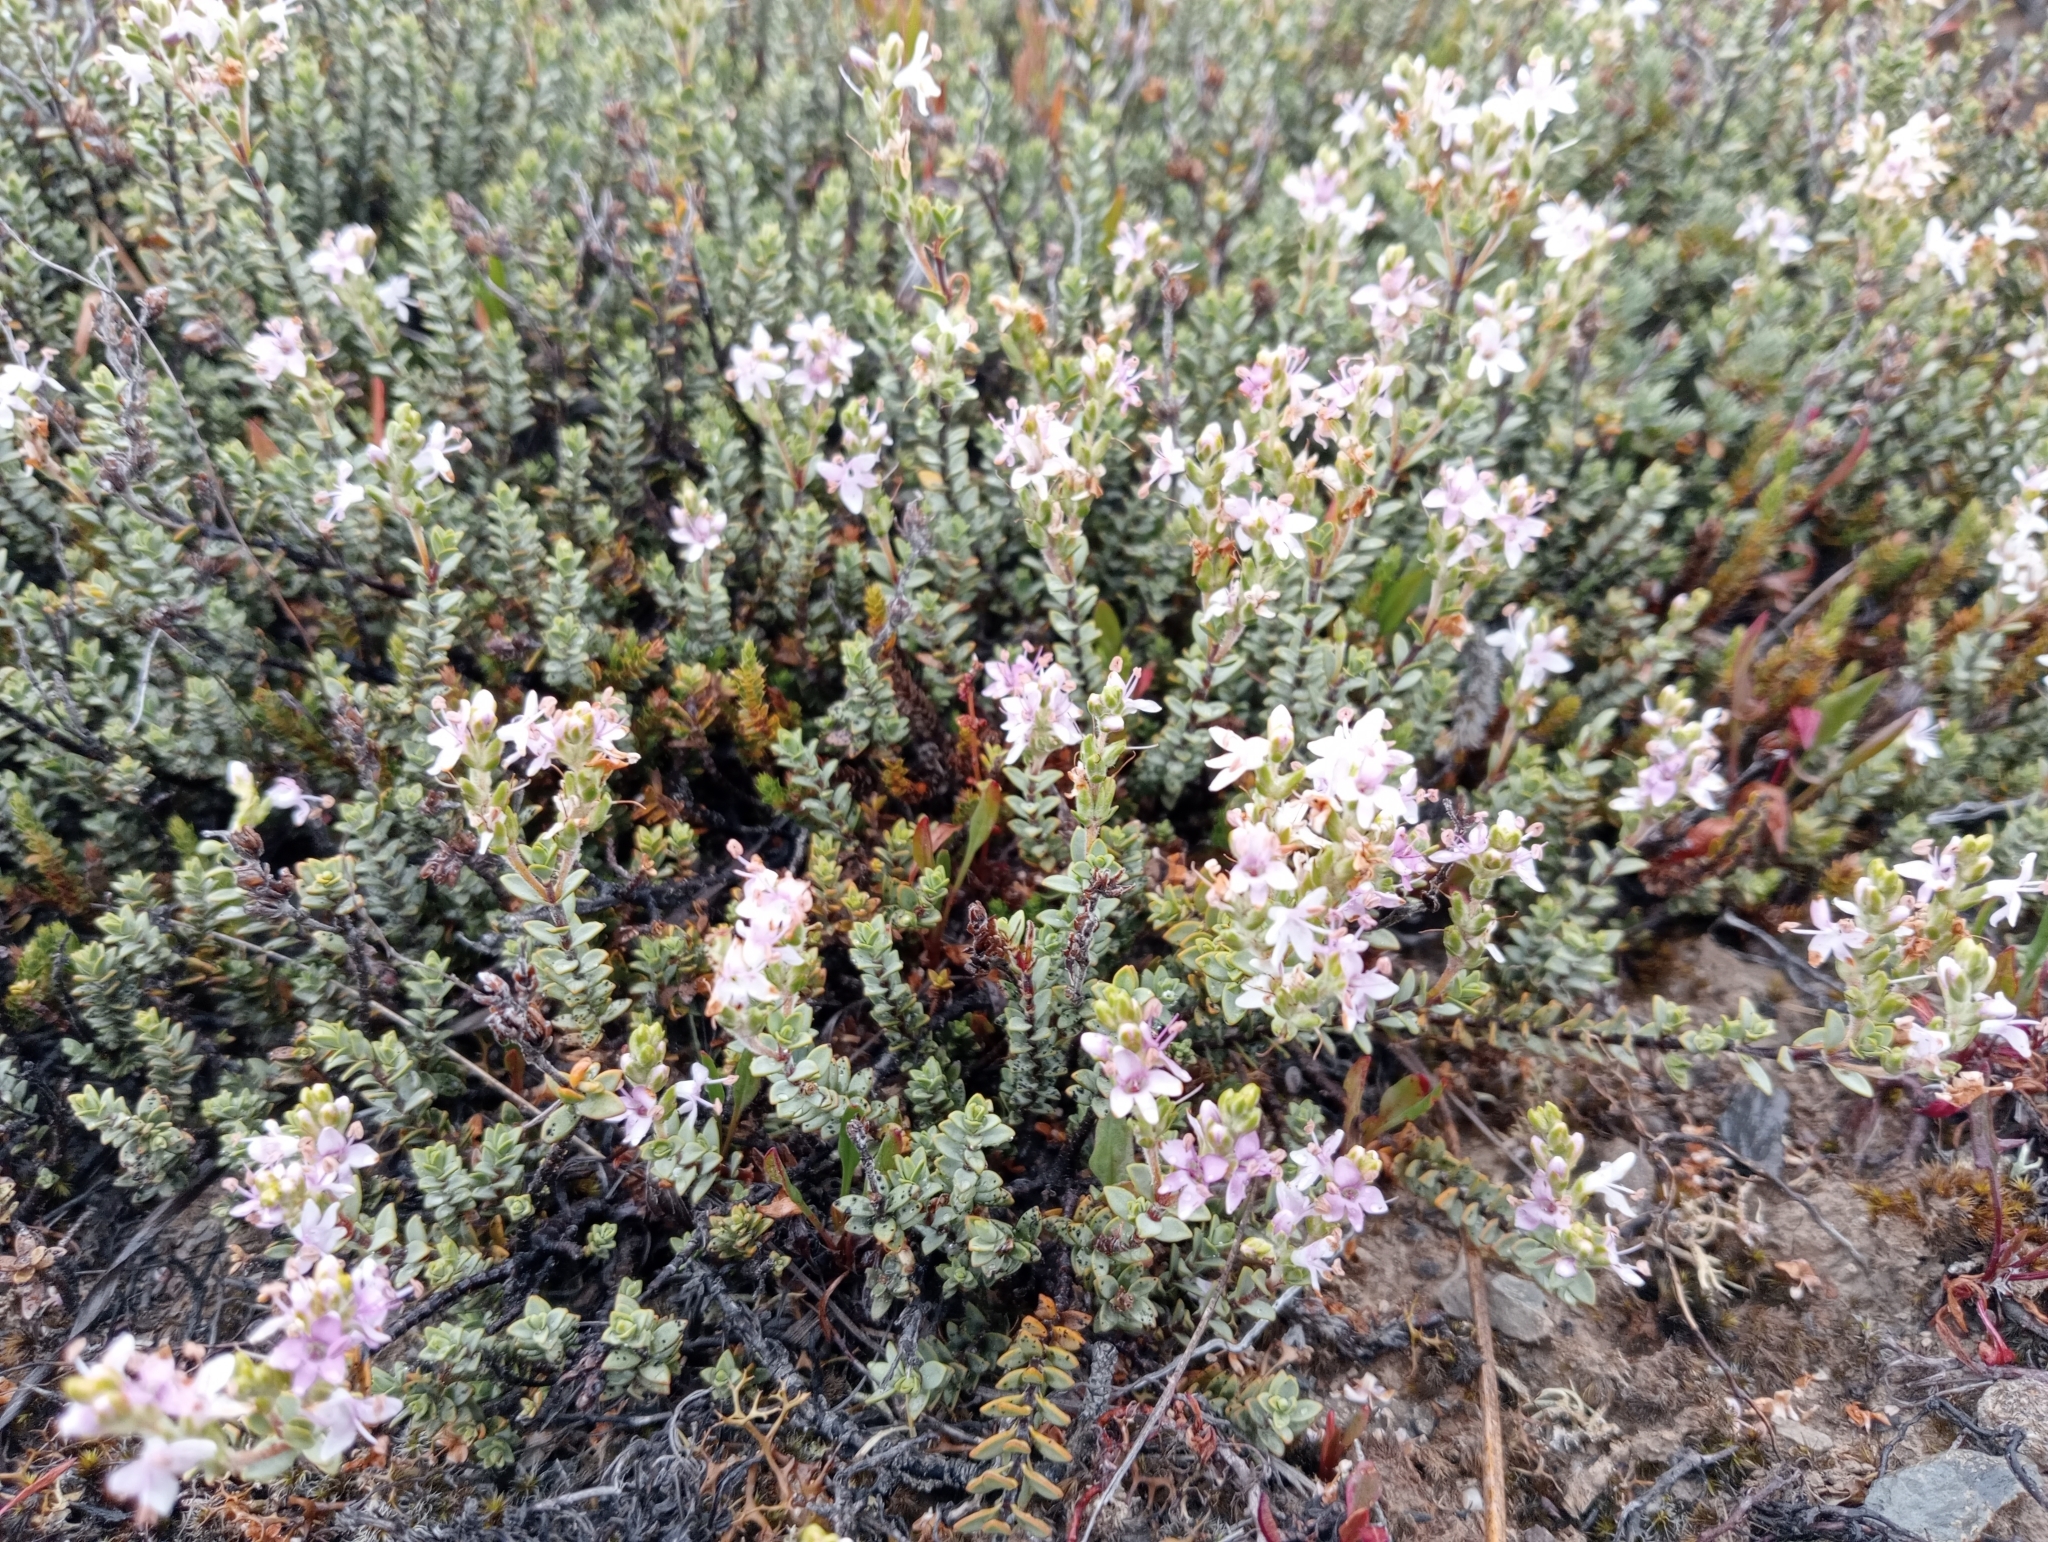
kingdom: Plantae
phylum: Tracheophyta
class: Magnoliopsida
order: Lamiales
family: Plantaginaceae
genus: Veronica
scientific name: Veronica pimeleoides
